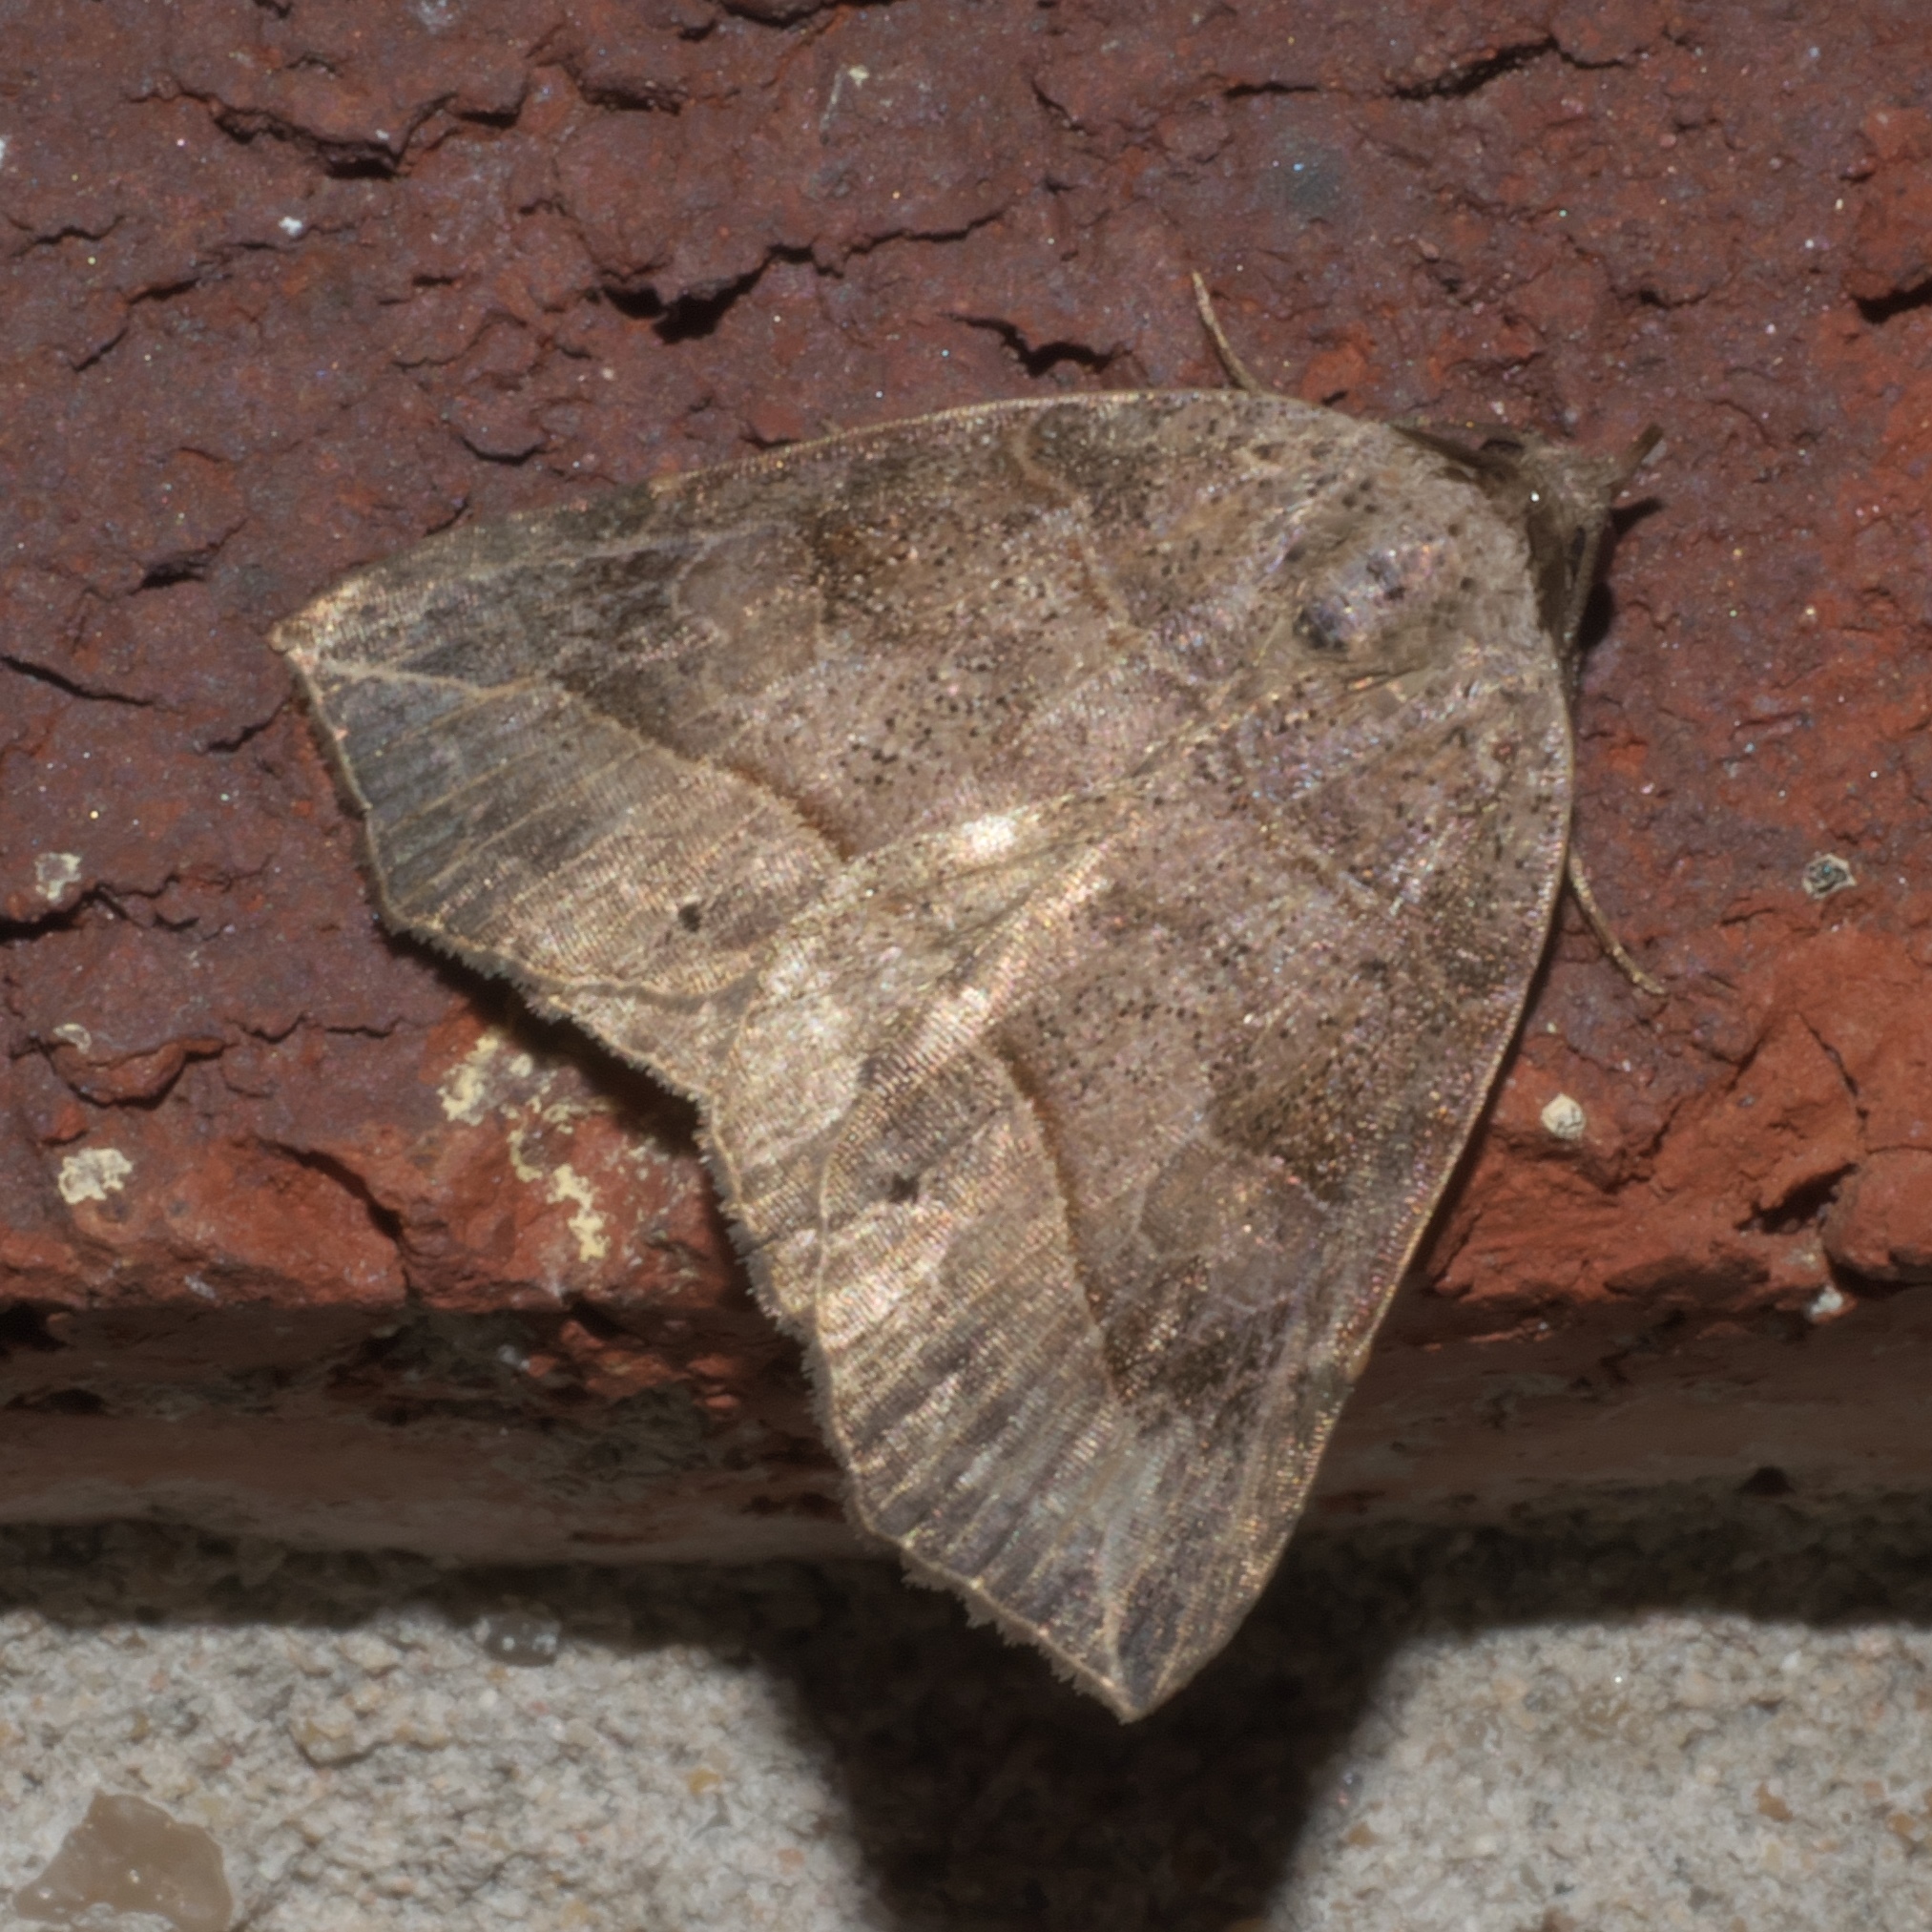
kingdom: Animalia
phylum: Arthropoda
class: Insecta
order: Lepidoptera
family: Erebidae
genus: Isogona
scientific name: Isogona tenuis
